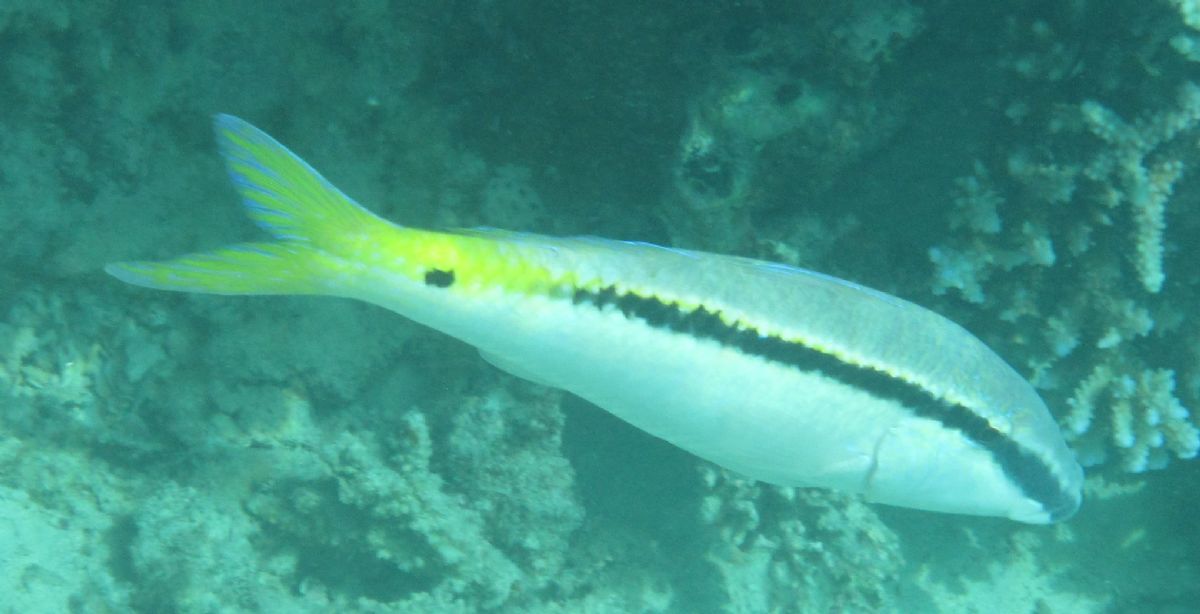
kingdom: Animalia
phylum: Chordata
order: Perciformes
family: Mullidae
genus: Parupeneus
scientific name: Parupeneus forsskali
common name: Red sea goatfish
